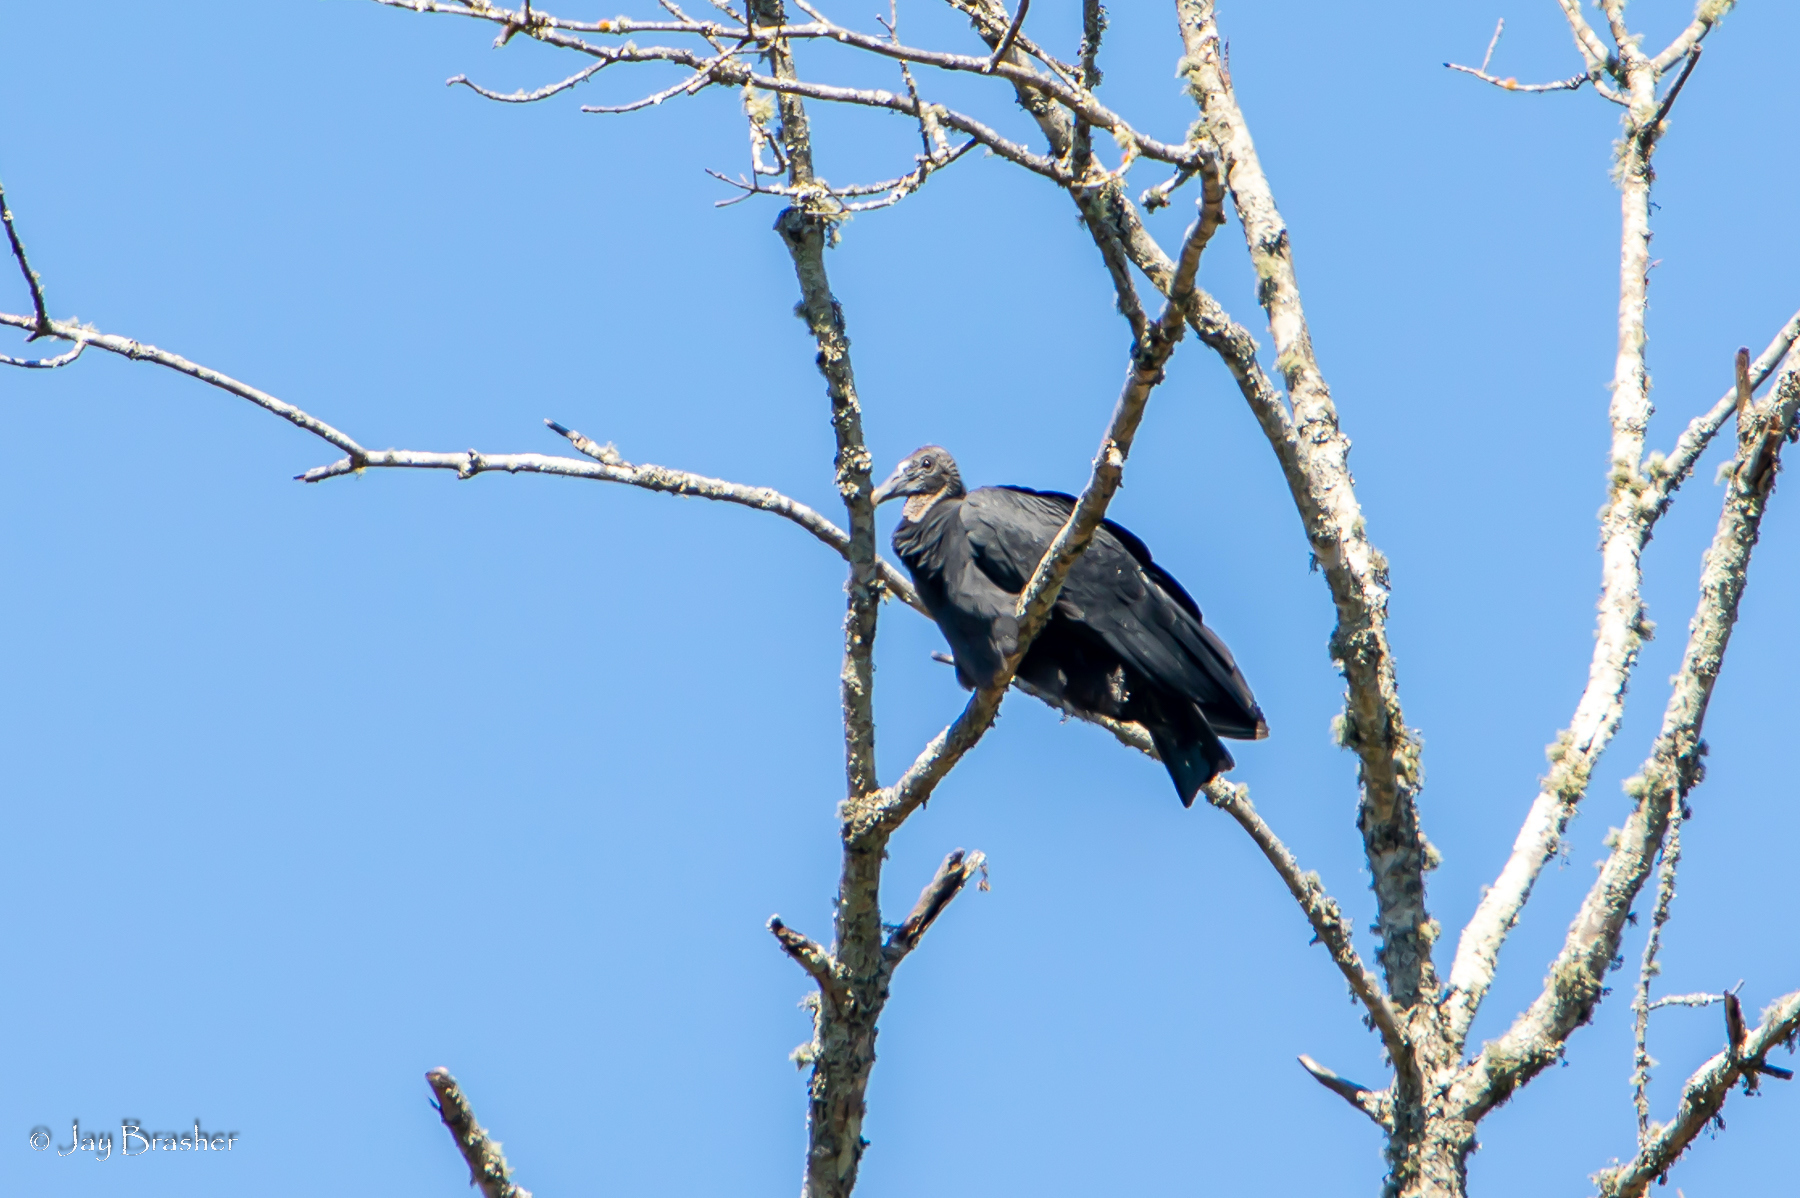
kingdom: Animalia
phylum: Chordata
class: Aves
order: Accipitriformes
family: Cathartidae
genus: Coragyps
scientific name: Coragyps atratus
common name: Black vulture
